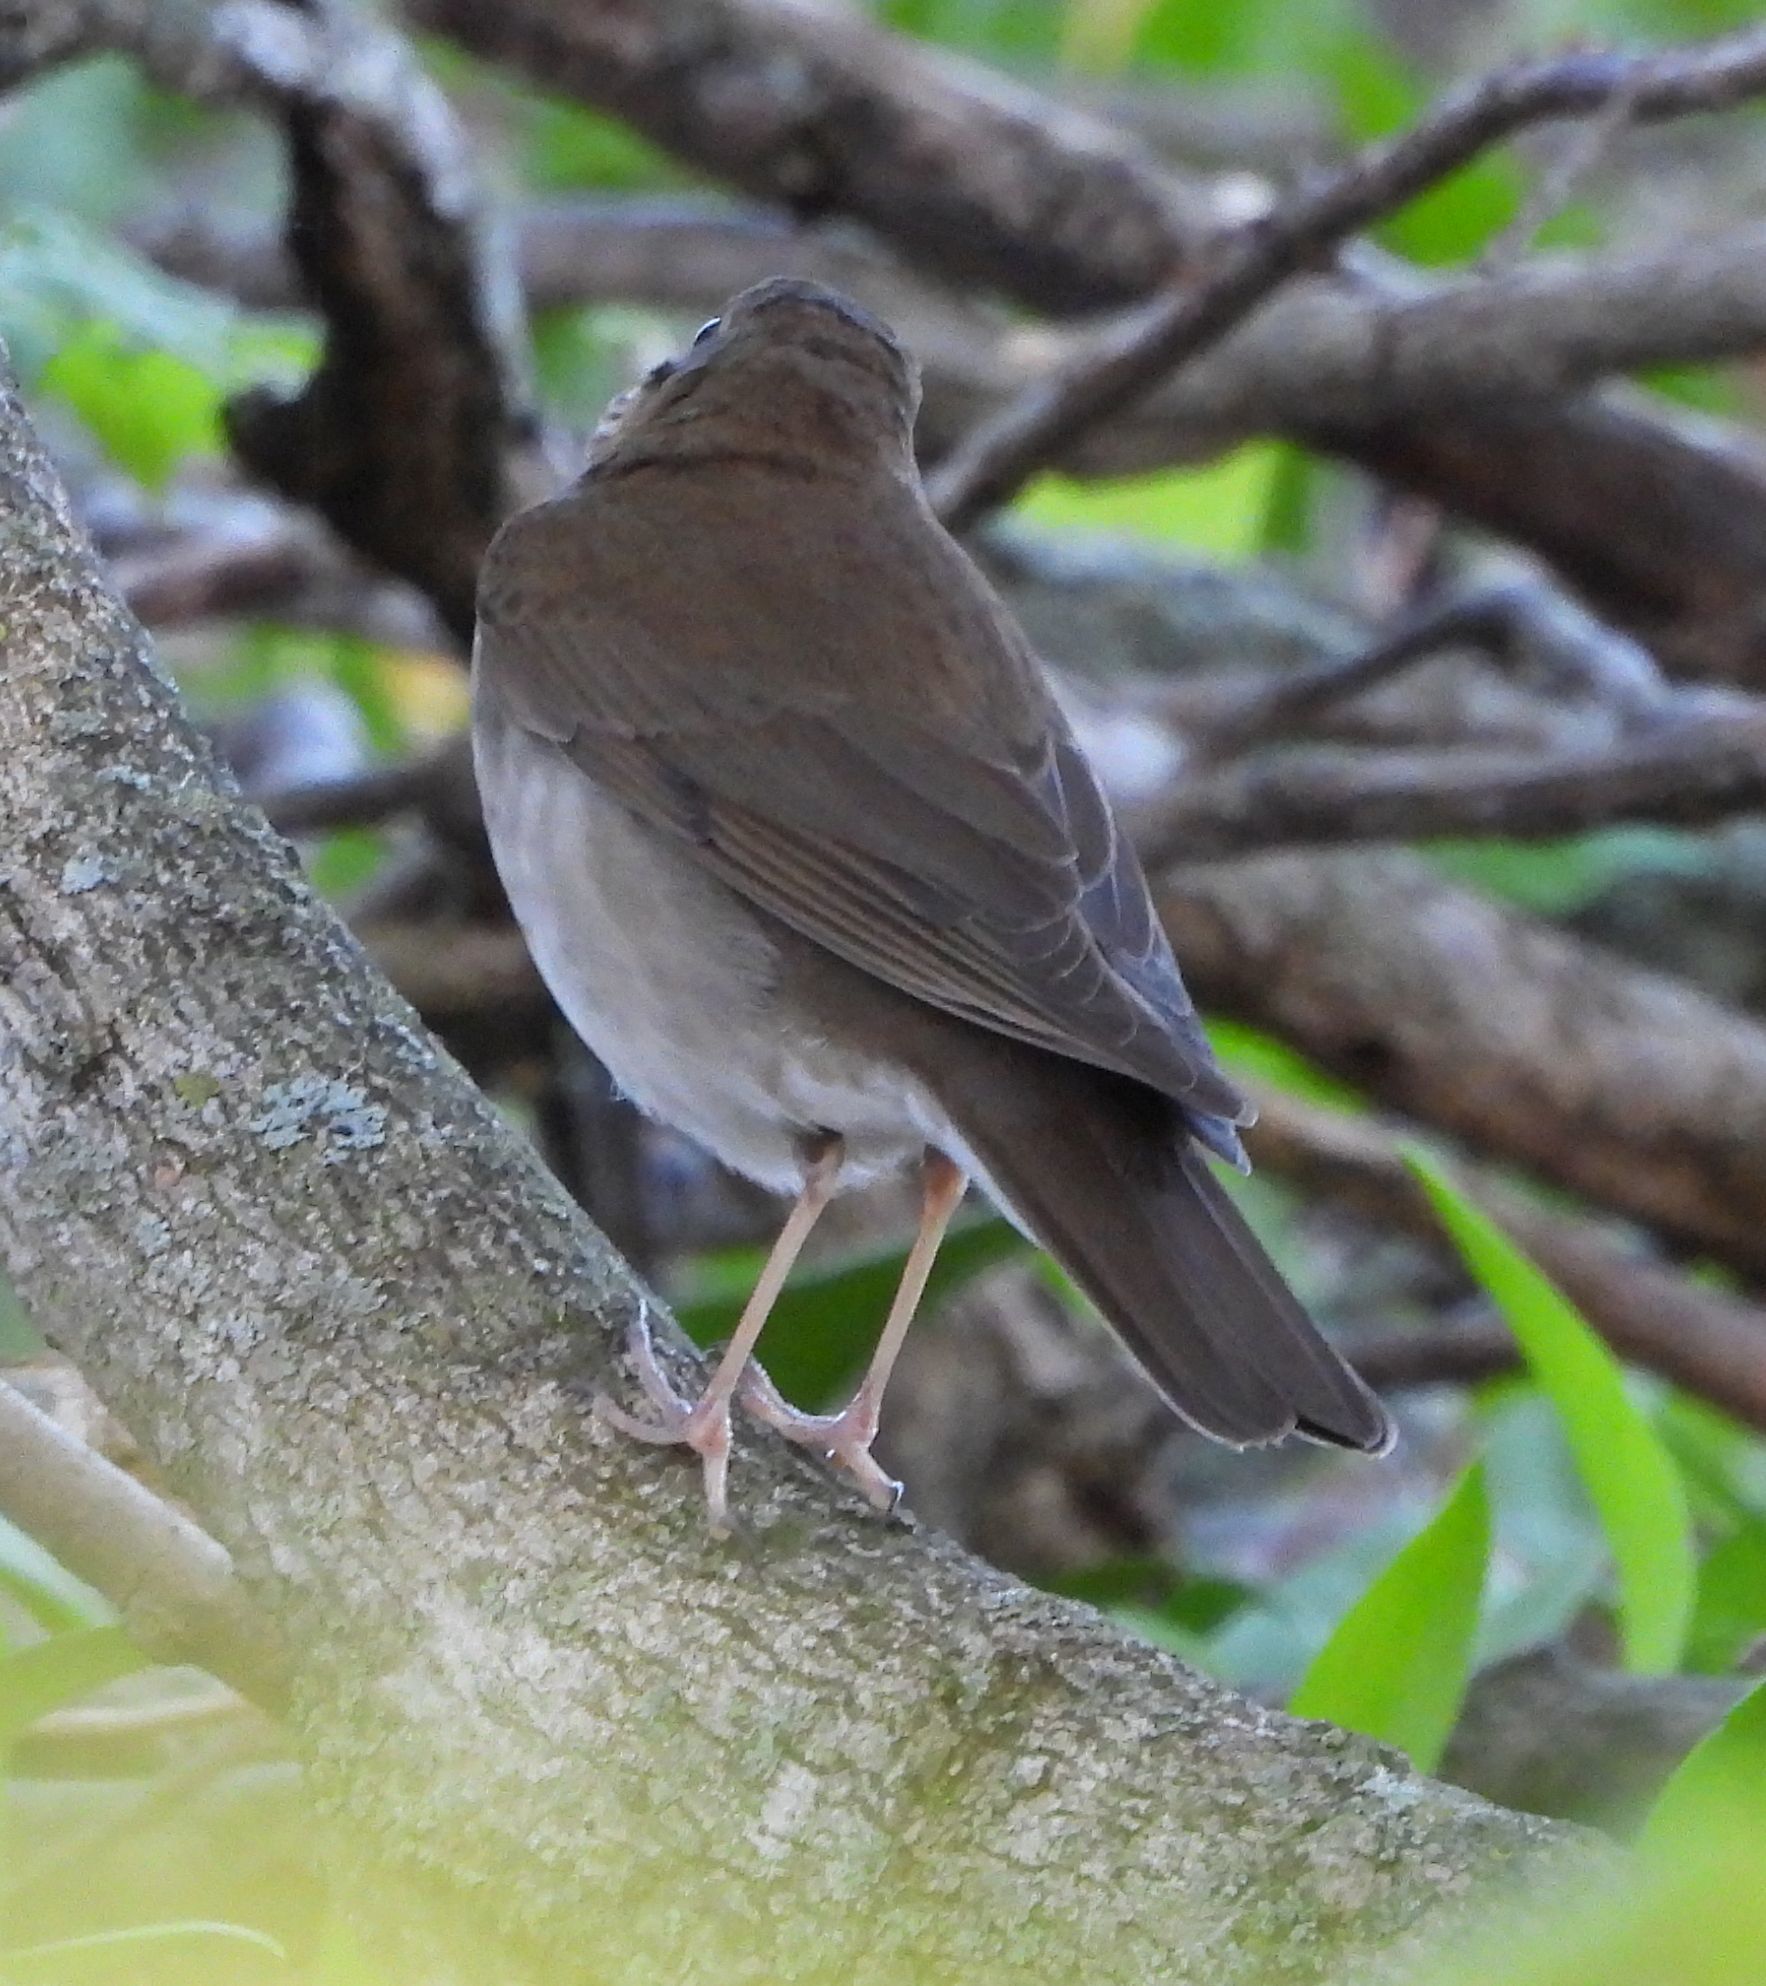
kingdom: Animalia
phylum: Chordata
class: Aves
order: Passeriformes
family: Turdidae
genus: Catharus
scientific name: Catharus minimus
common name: Grey-cheeked thrush
